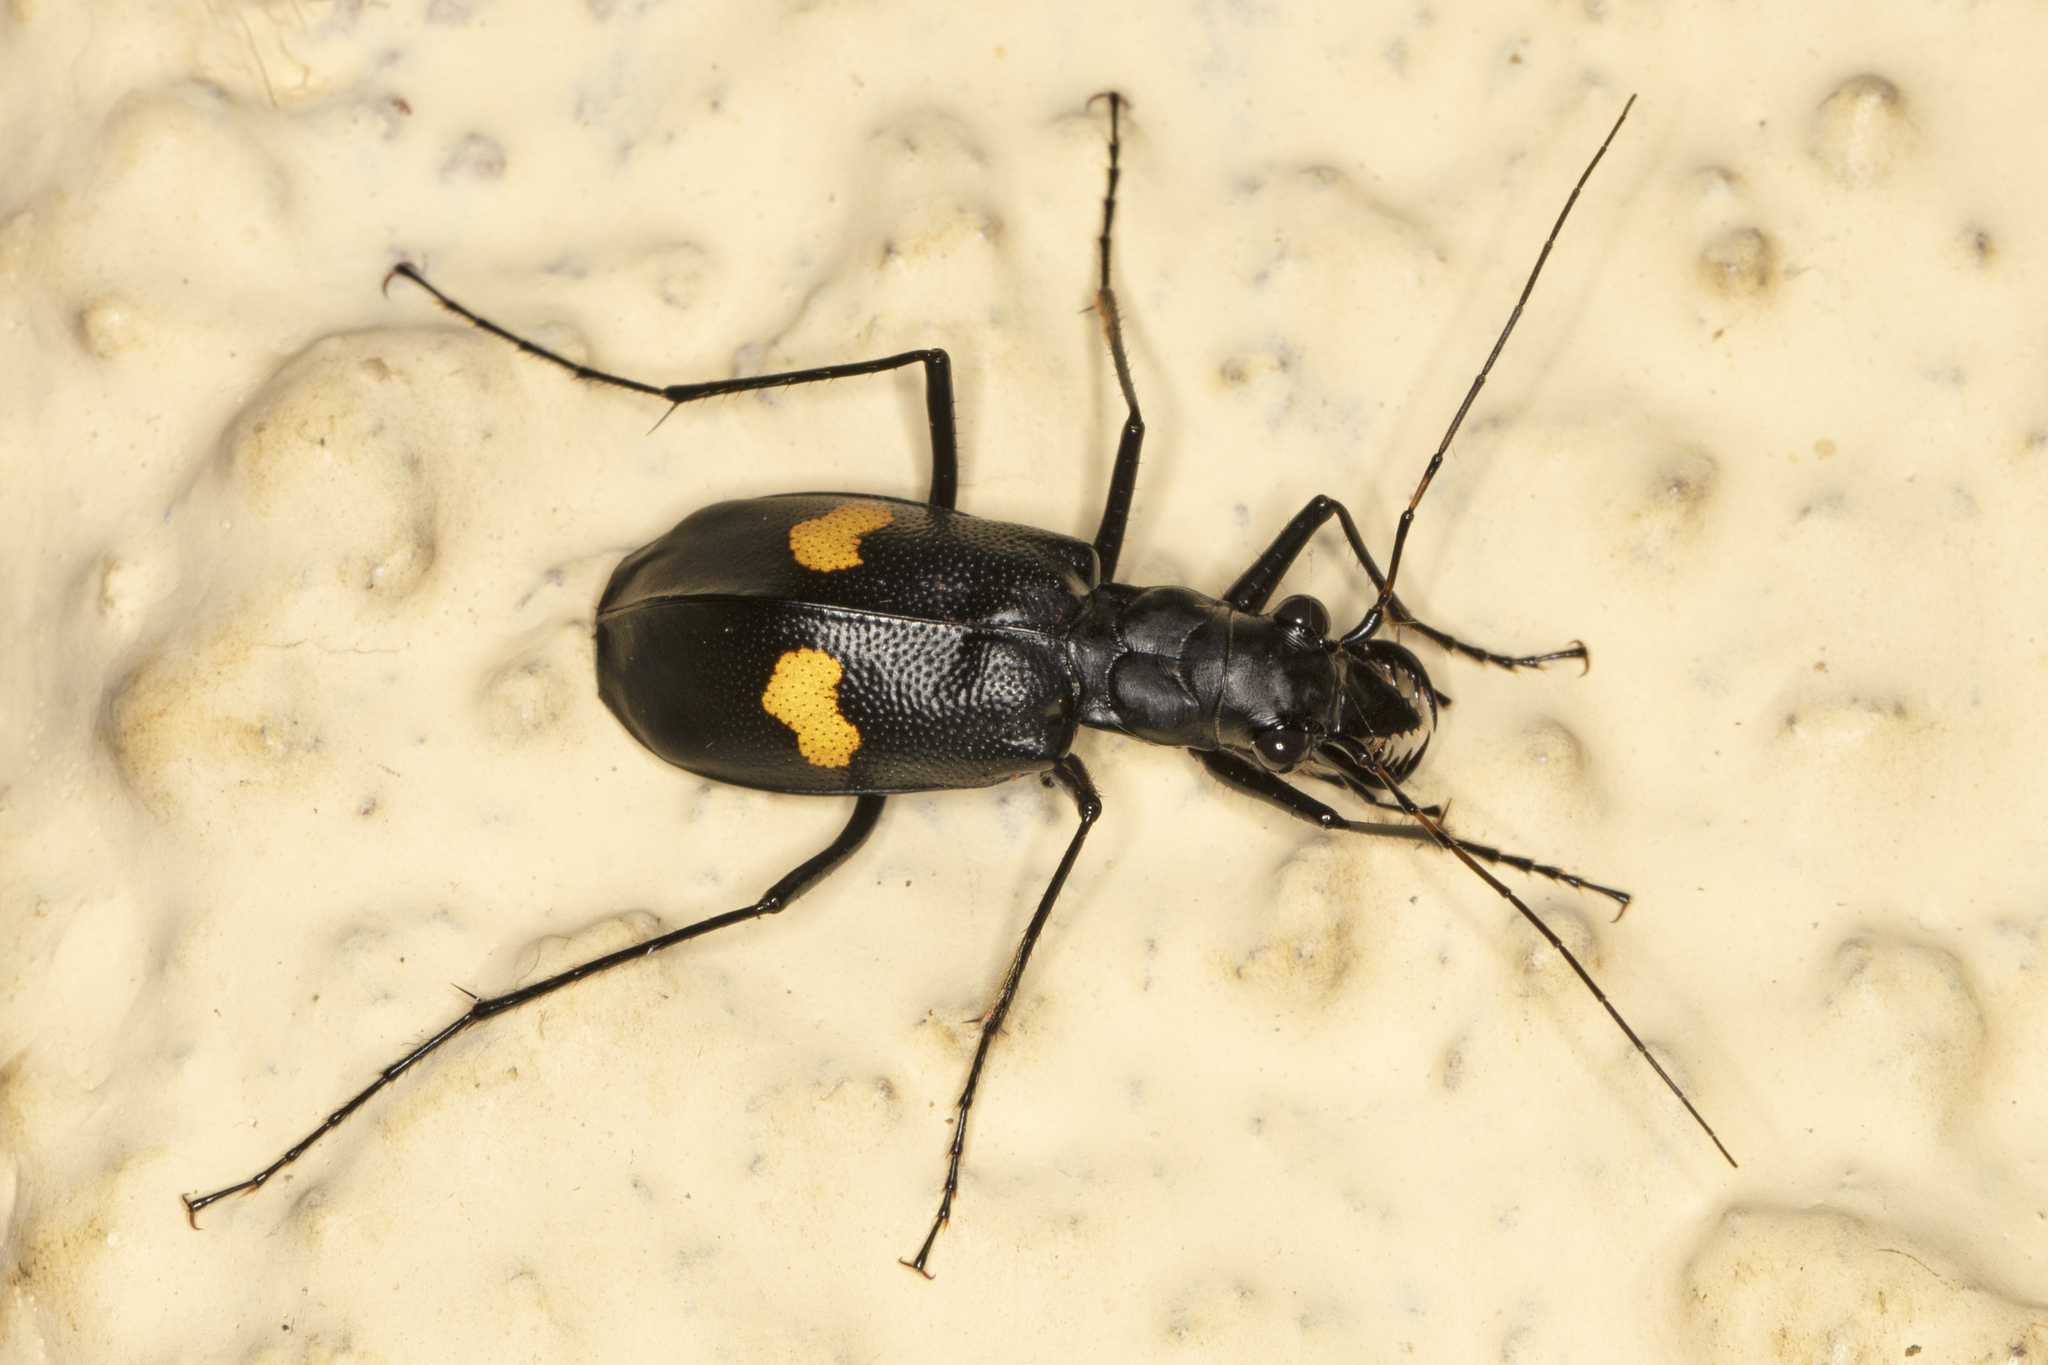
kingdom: Animalia
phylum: Arthropoda
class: Insecta
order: Coleoptera
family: Carabidae
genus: Oxycheila
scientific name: Oxycheila tristis
